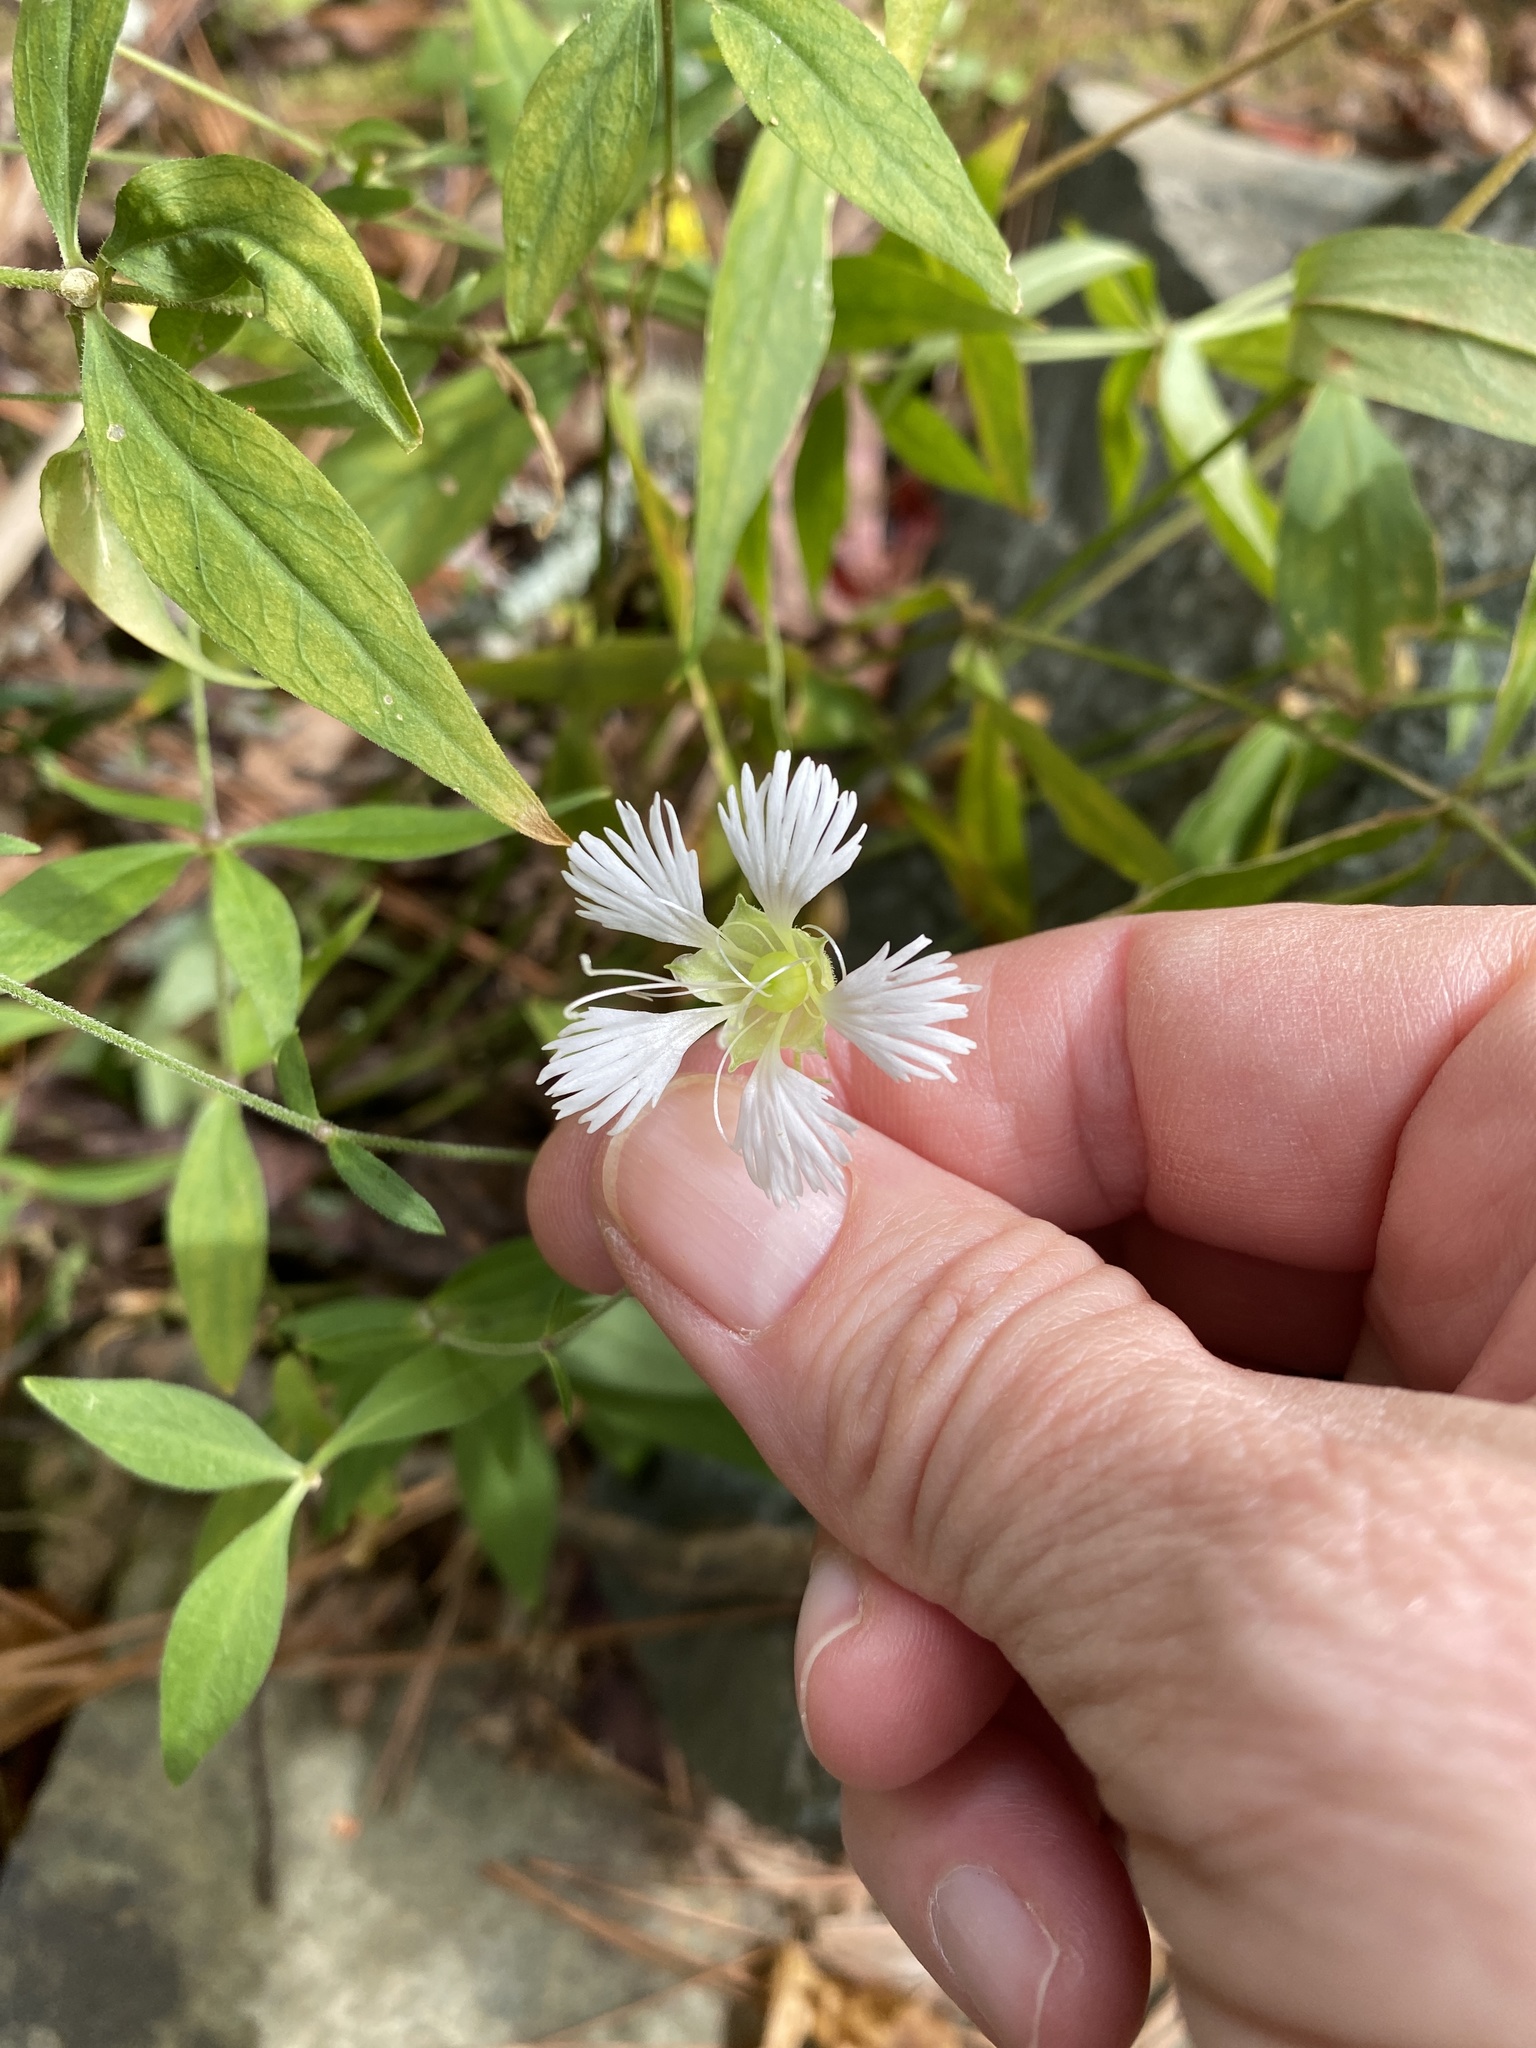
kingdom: Plantae
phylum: Tracheophyta
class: Magnoliopsida
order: Caryophyllales
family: Caryophyllaceae
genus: Silene
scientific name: Silene stellata
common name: Starry campion
